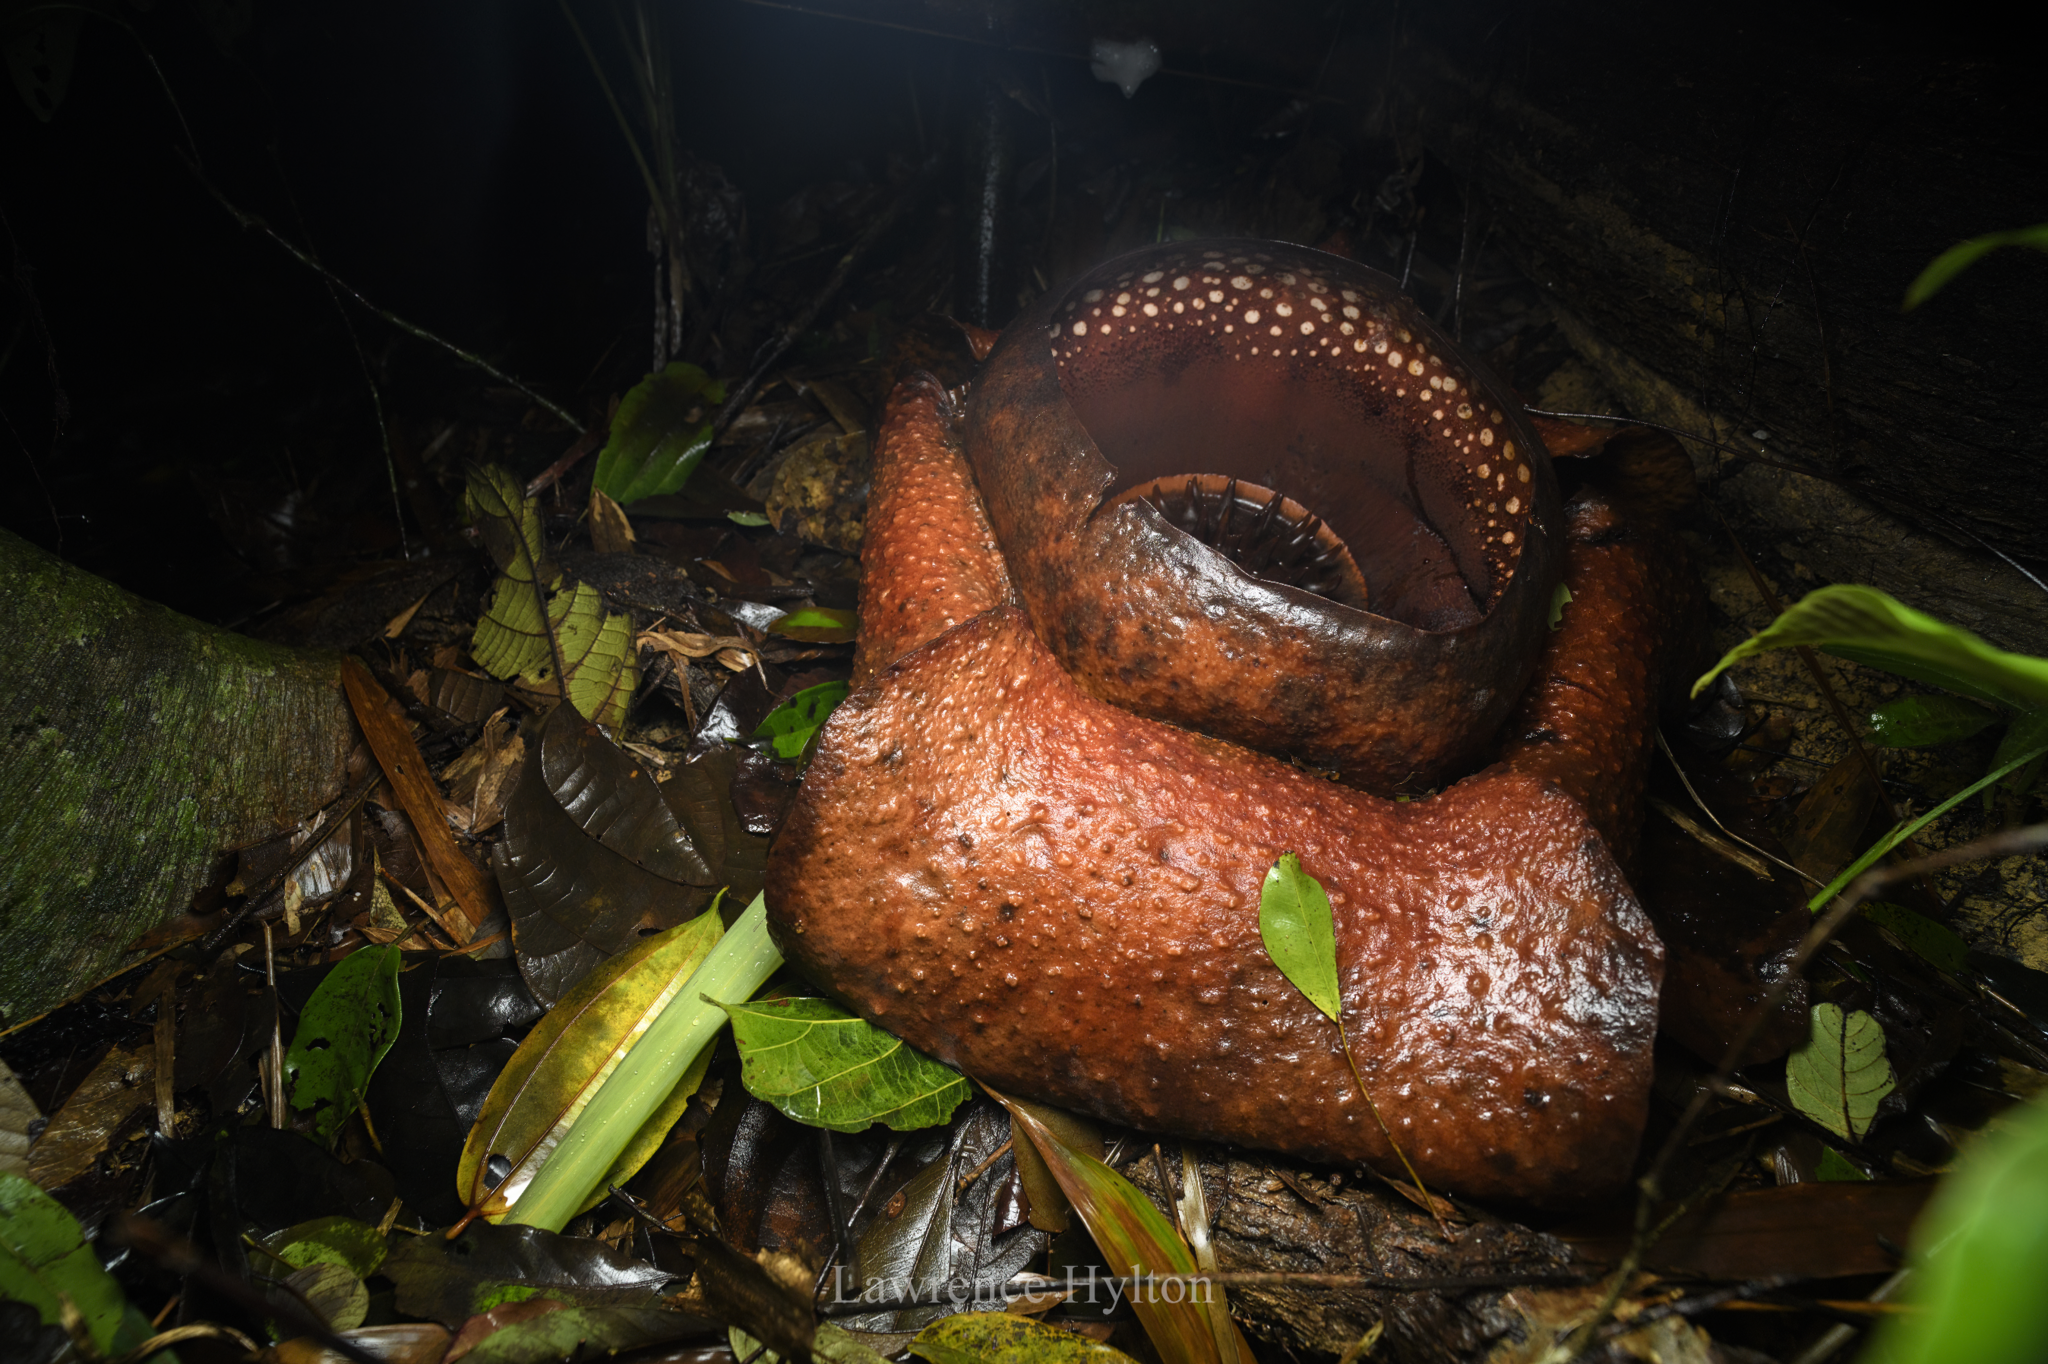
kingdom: Plantae
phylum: Tracheophyta
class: Magnoliopsida
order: Malpighiales
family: Rafflesiaceae
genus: Rafflesia
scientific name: Rafflesia kerrii
